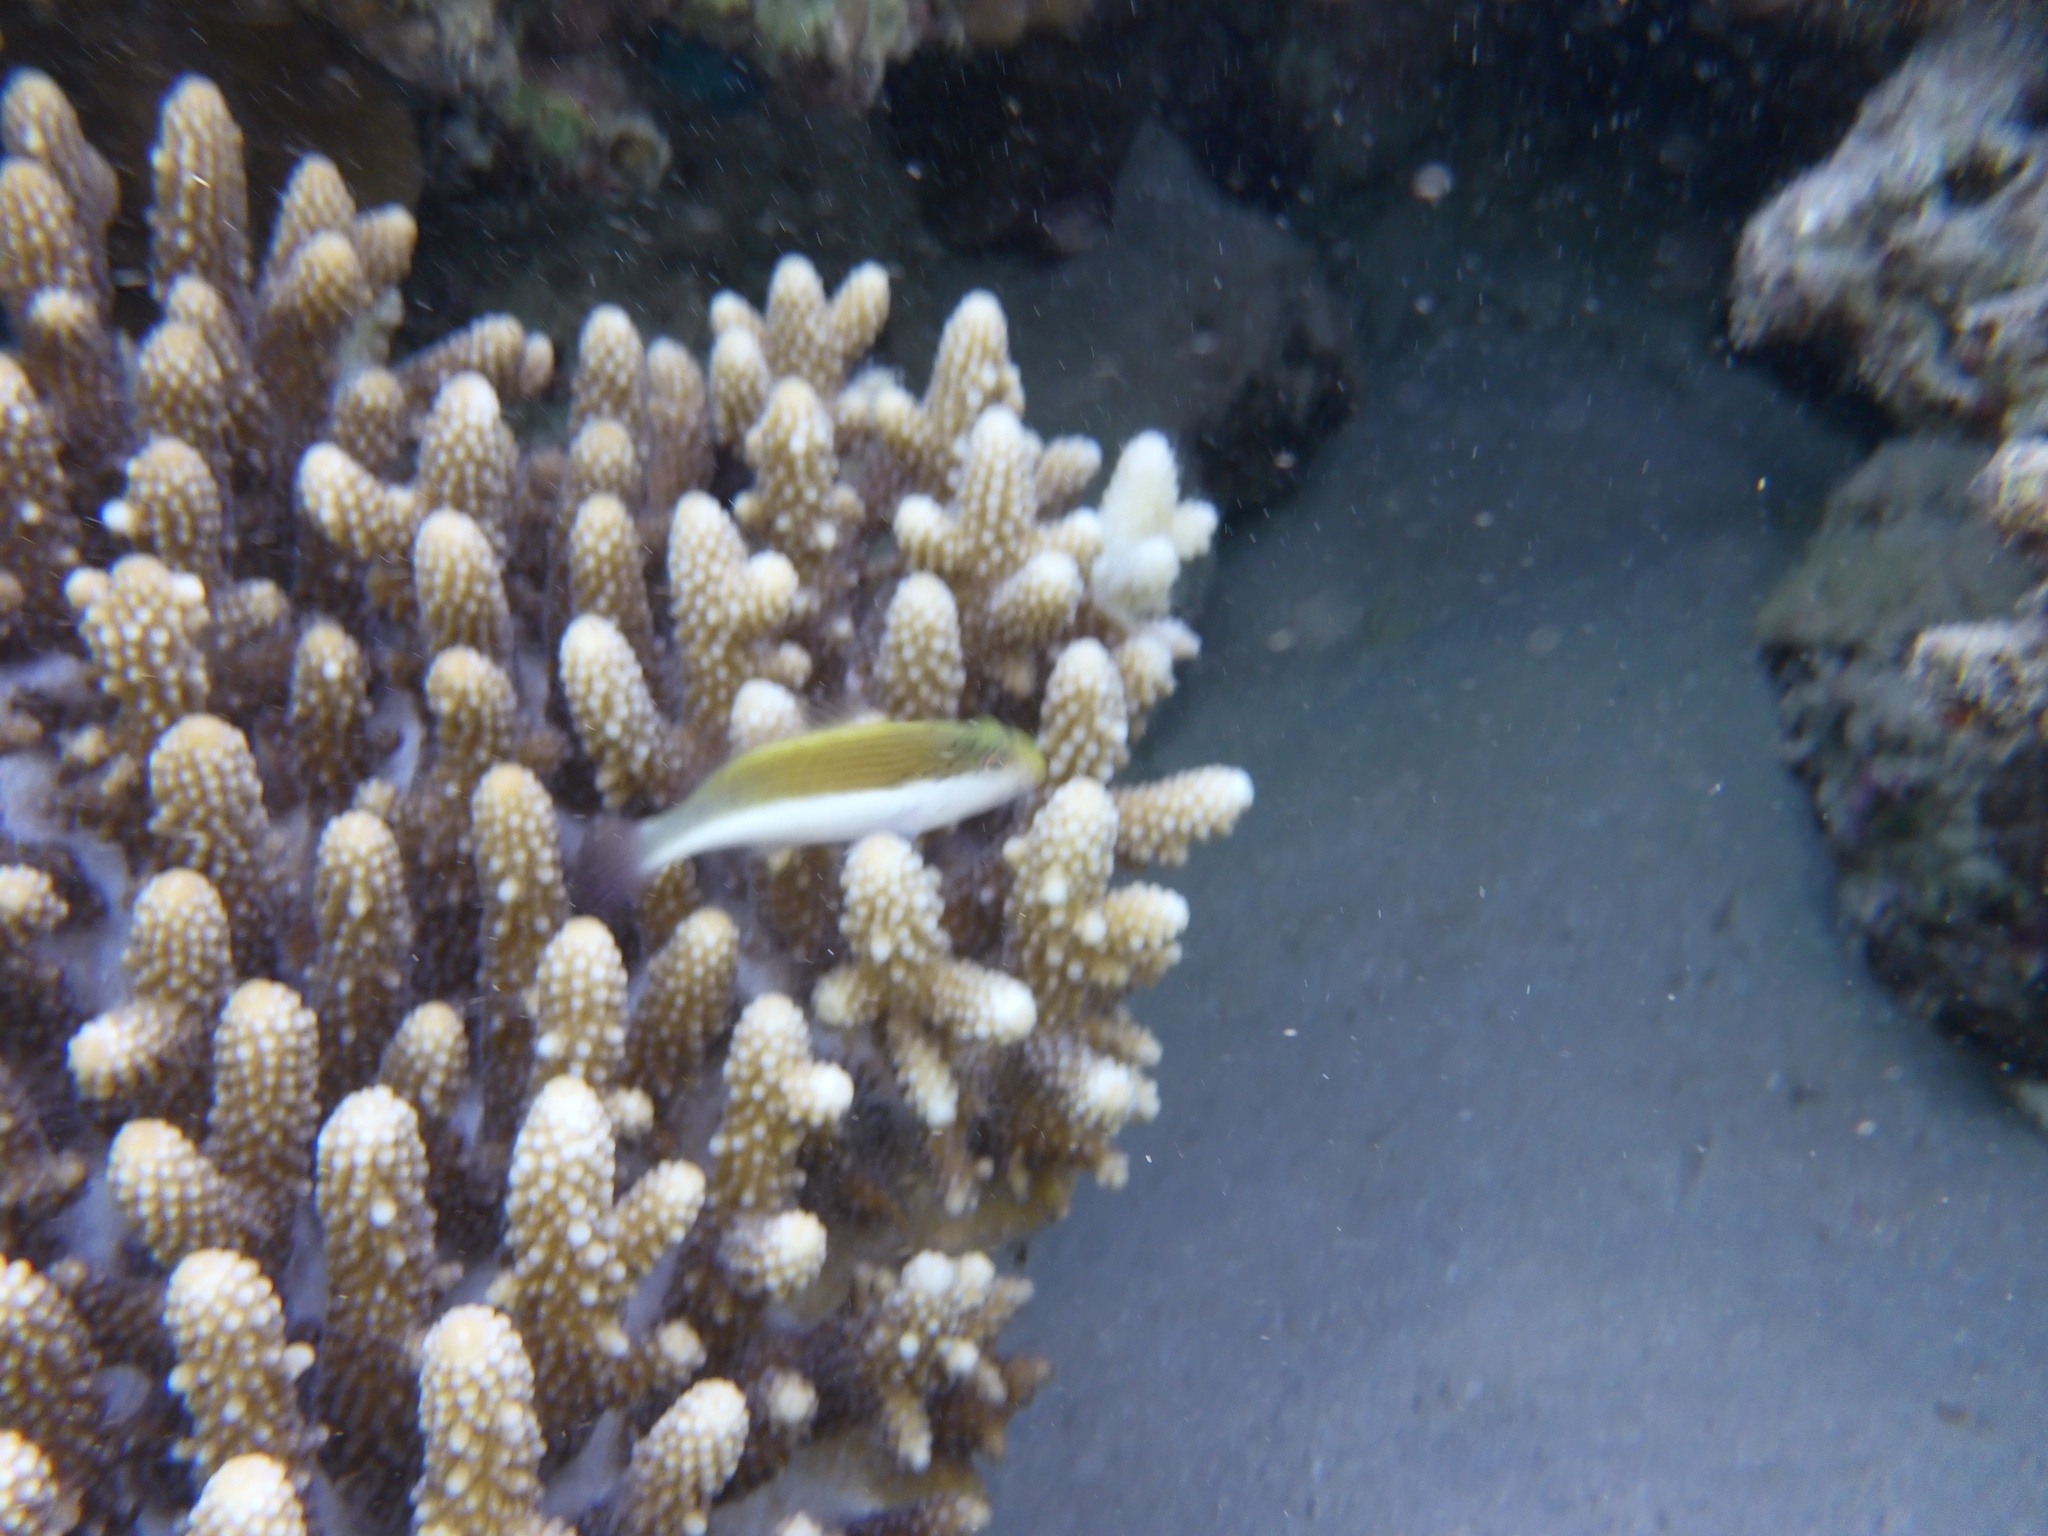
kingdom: Animalia
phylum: Chordata
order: Perciformes
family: Cirrhitidae
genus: Paracirrhites
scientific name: Paracirrhites forsteri
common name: Freckled hawkfish
